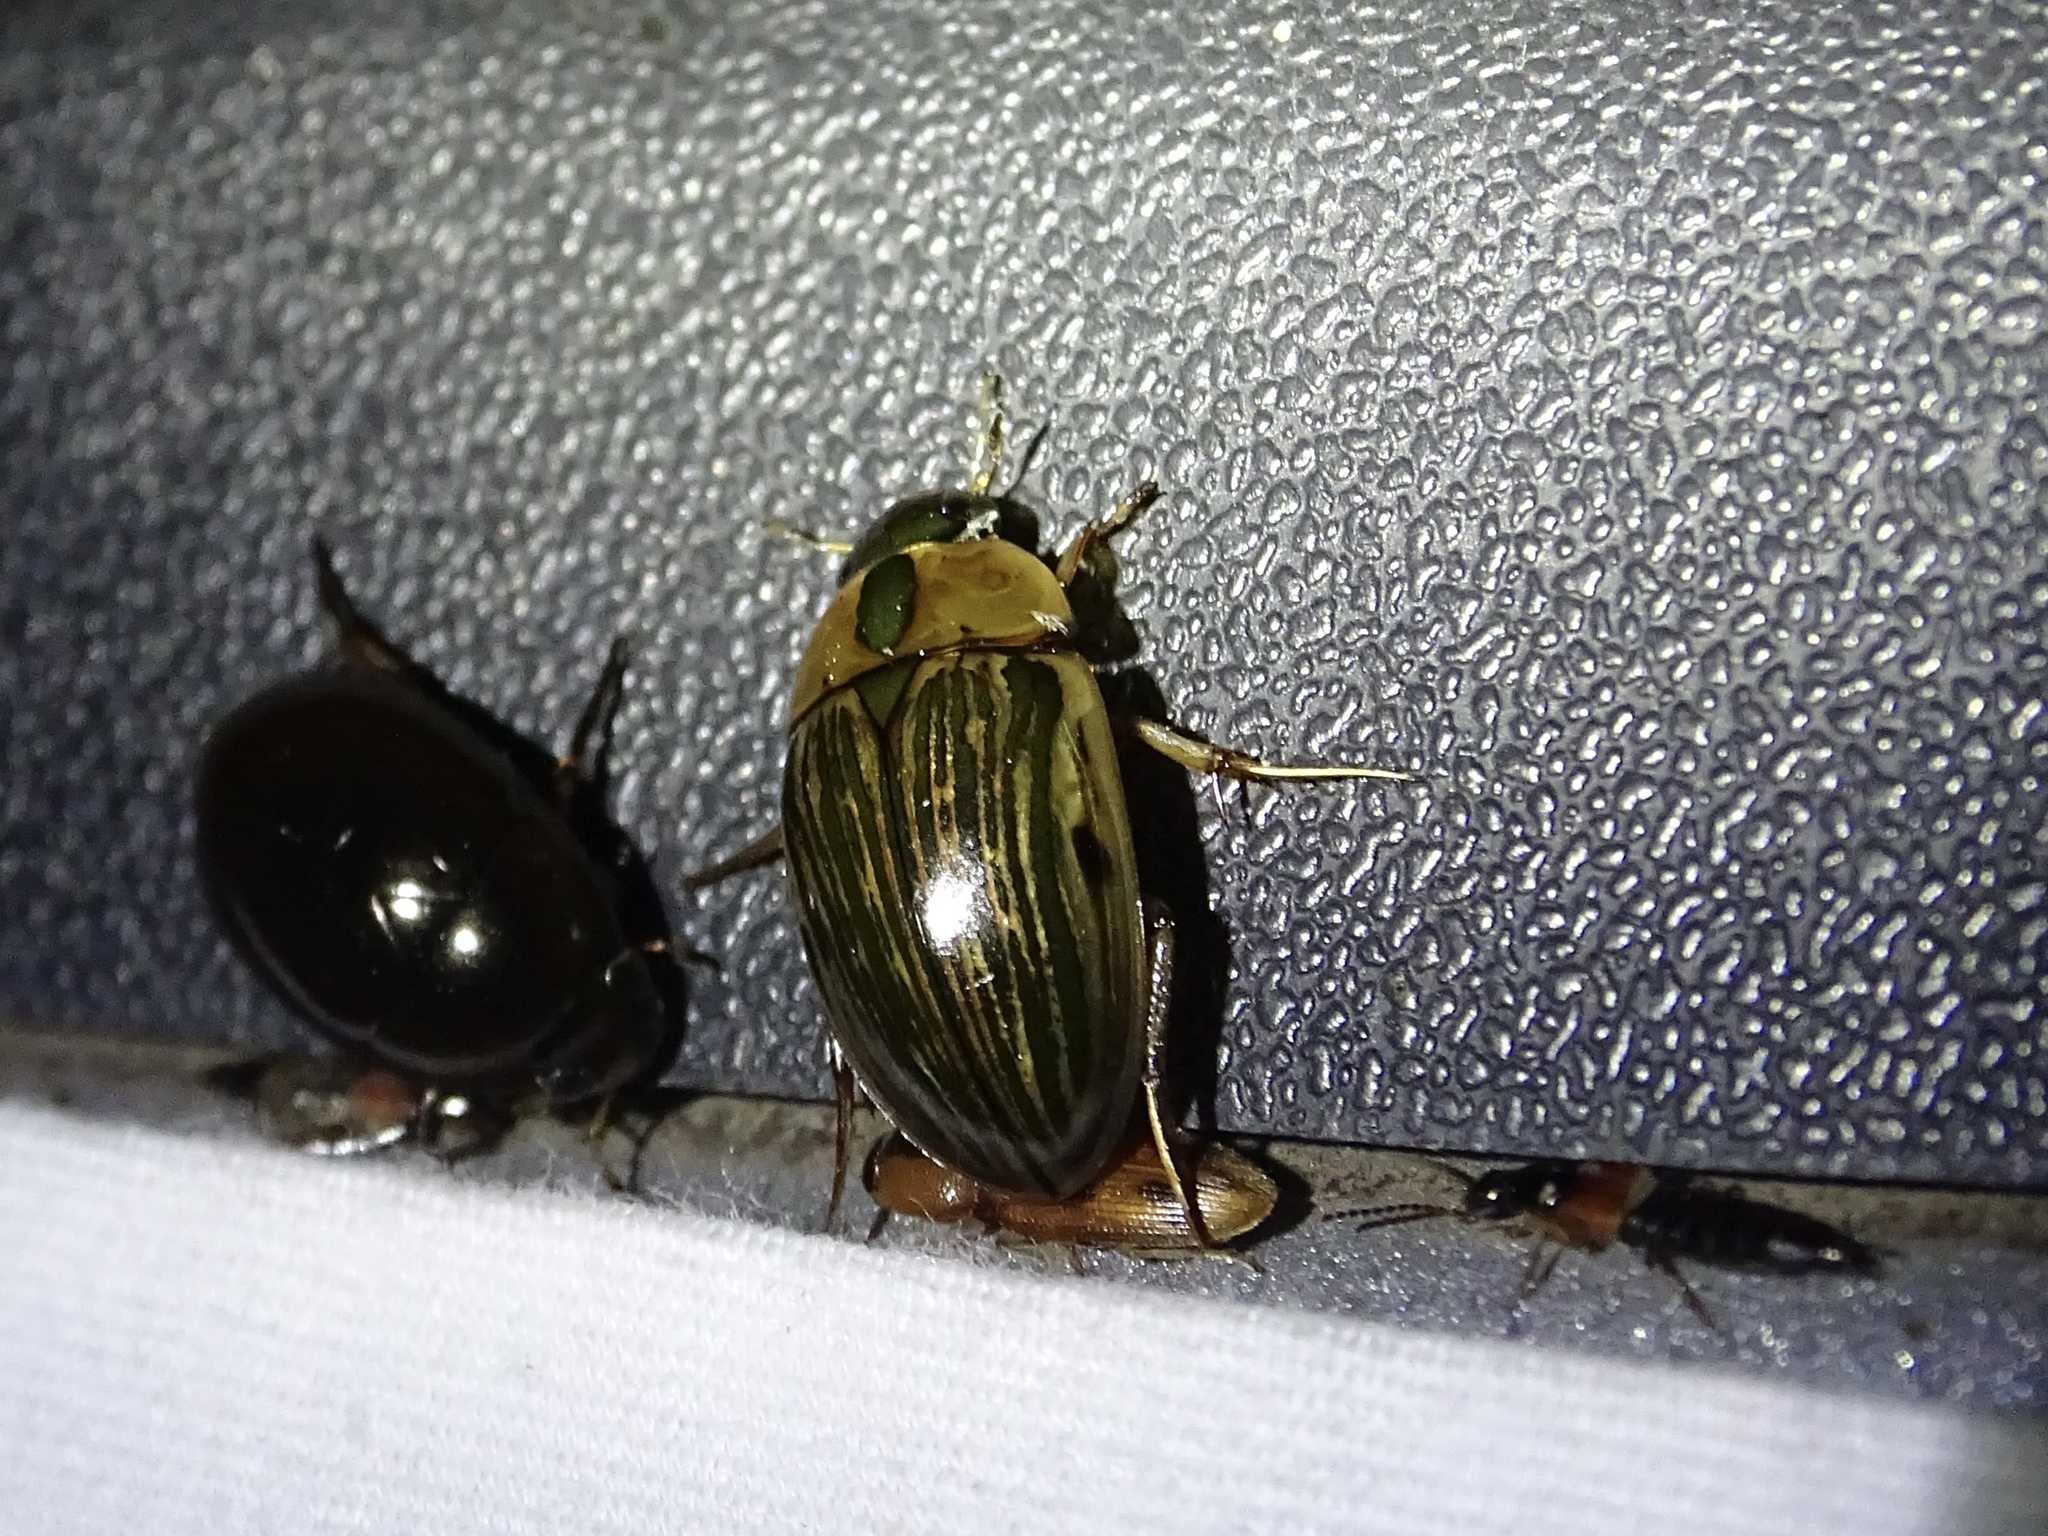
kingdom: Animalia
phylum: Arthropoda
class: Insecta
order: Coleoptera
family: Hydrophilidae
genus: Tropisternus
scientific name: Tropisternus collaris
